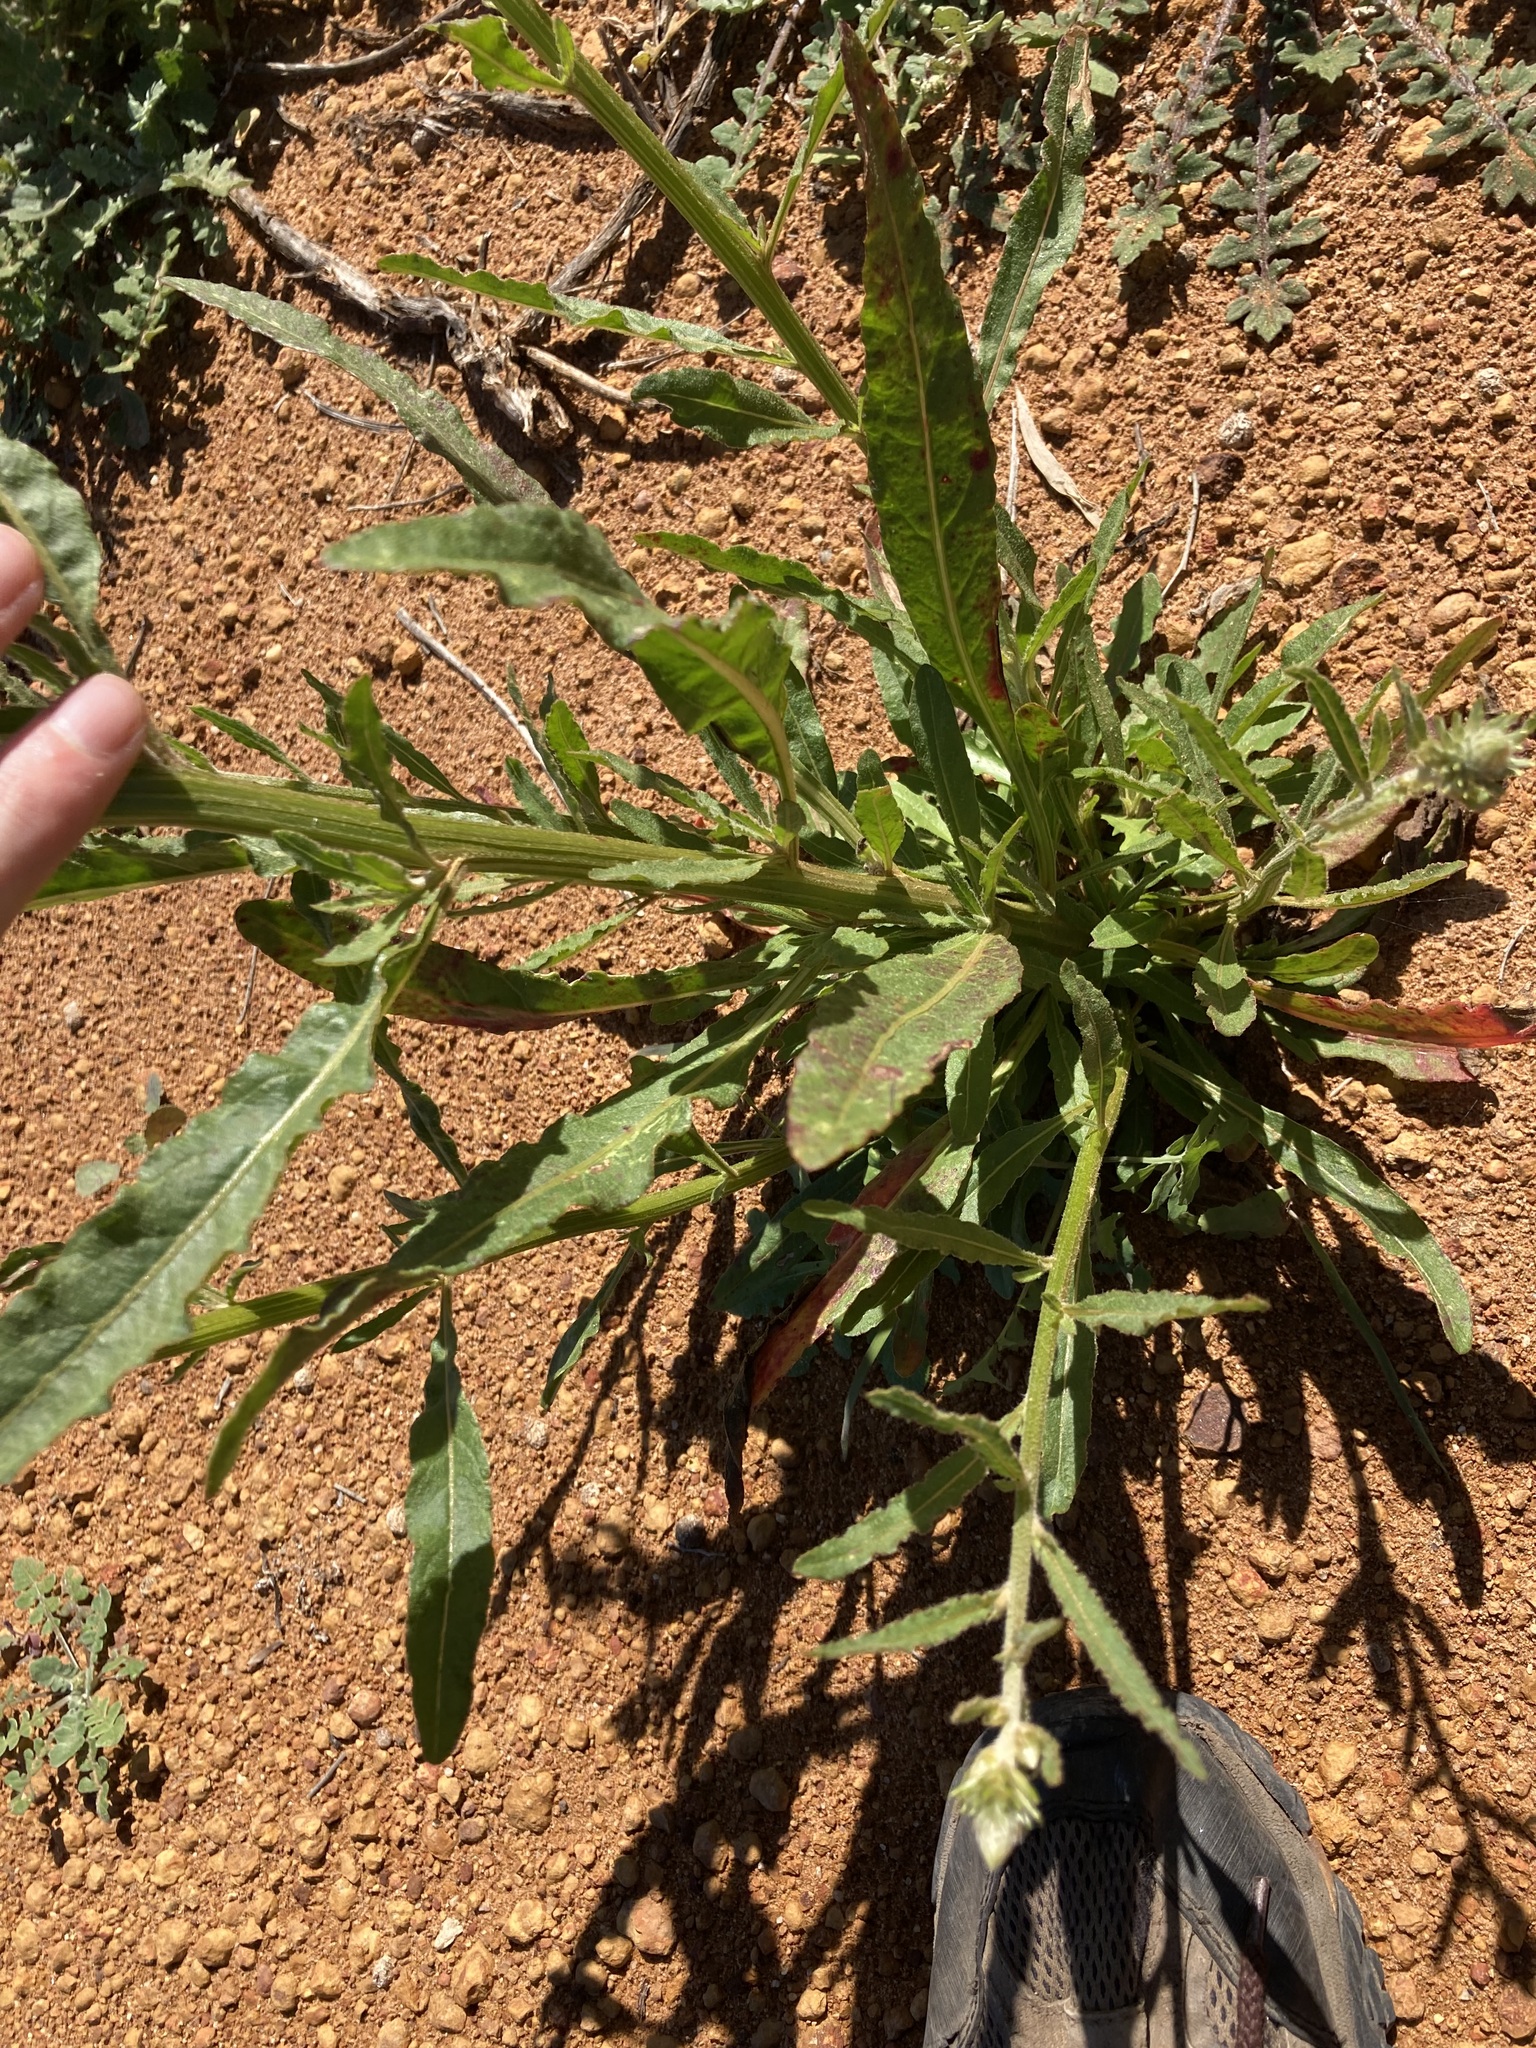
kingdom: Plantae
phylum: Tracheophyta
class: Magnoliopsida
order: Caryophyllales
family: Amaranthaceae
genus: Ptilotus
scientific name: Ptilotus polystachyus
